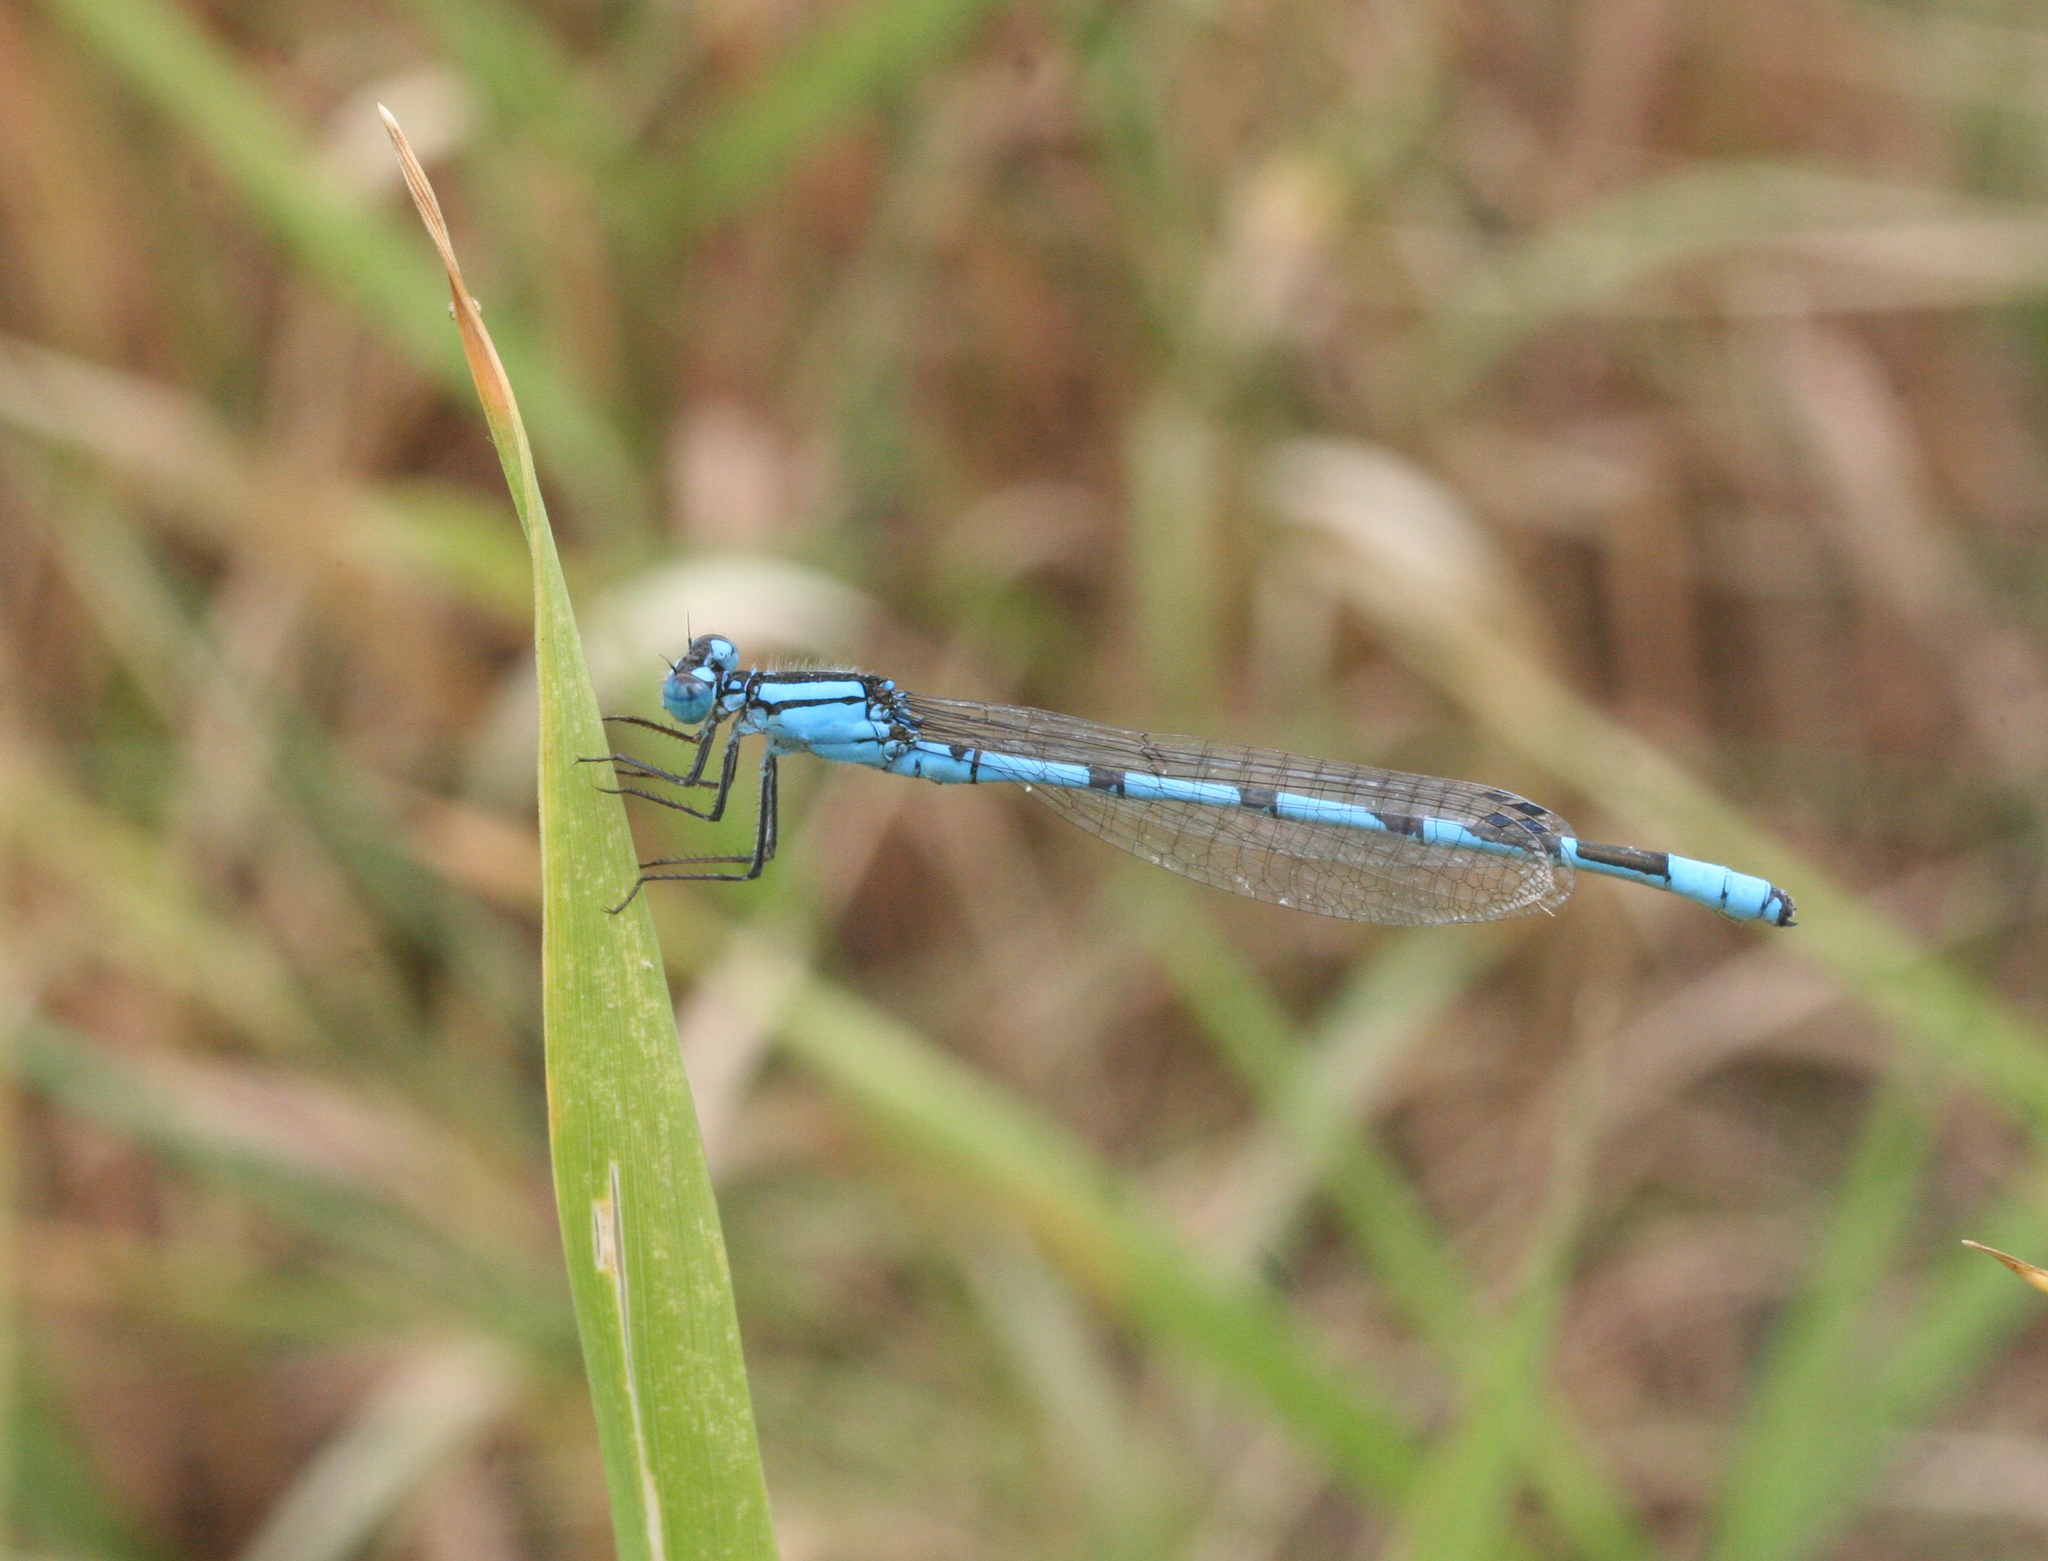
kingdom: Animalia
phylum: Arthropoda
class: Insecta
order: Odonata
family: Coenagrionidae
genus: Enallagma
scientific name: Enallagma cyathigerum
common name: Common blue damselfly
